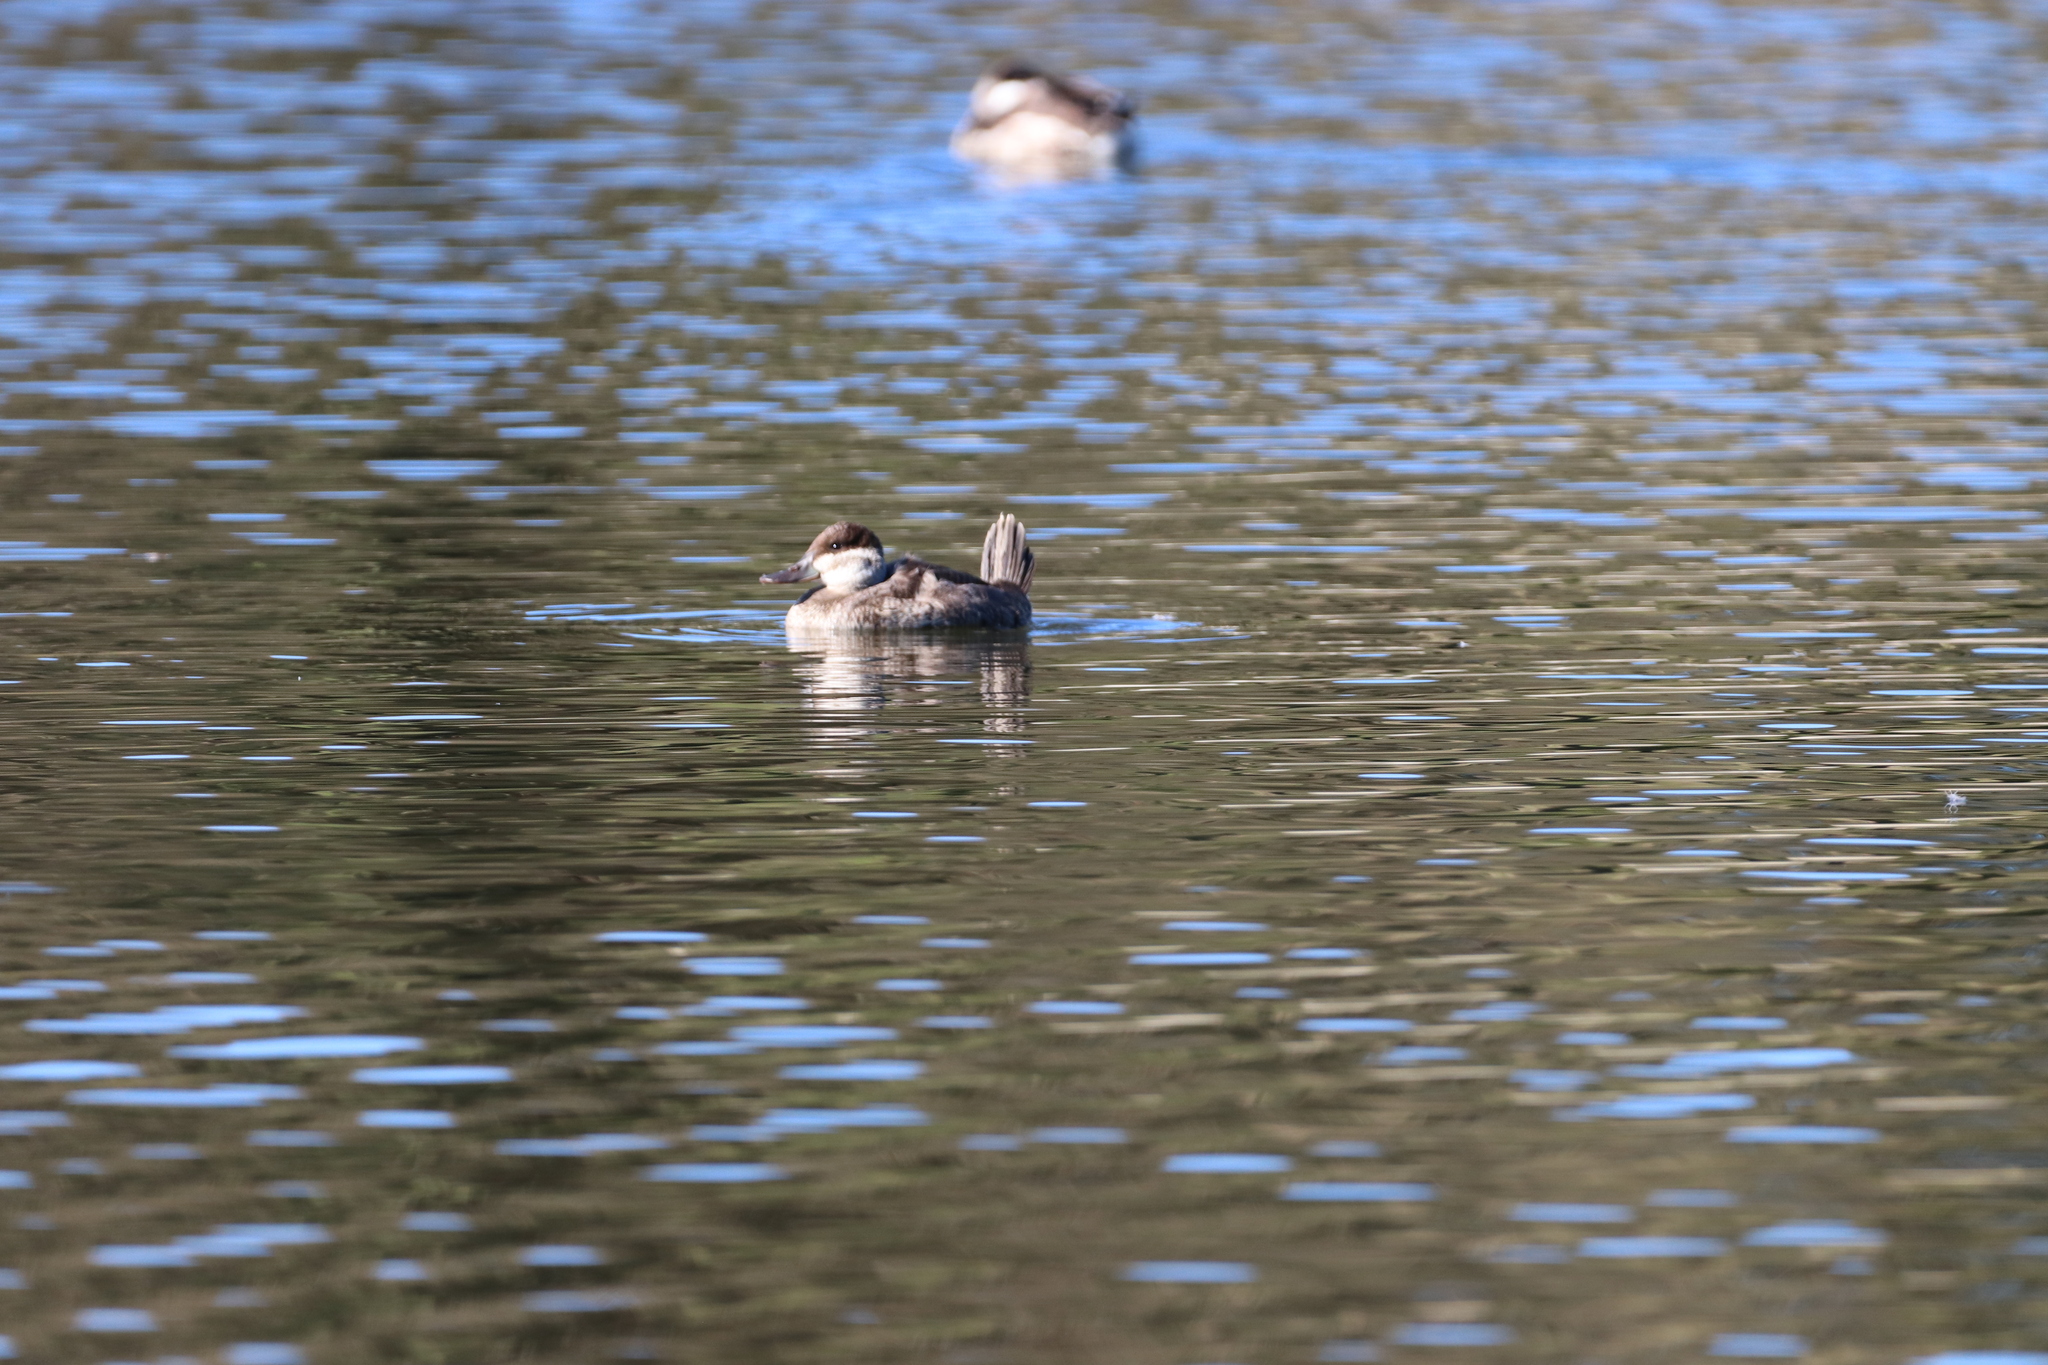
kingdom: Animalia
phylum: Chordata
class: Aves
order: Anseriformes
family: Anatidae
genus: Oxyura
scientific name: Oxyura jamaicensis
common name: Ruddy duck
